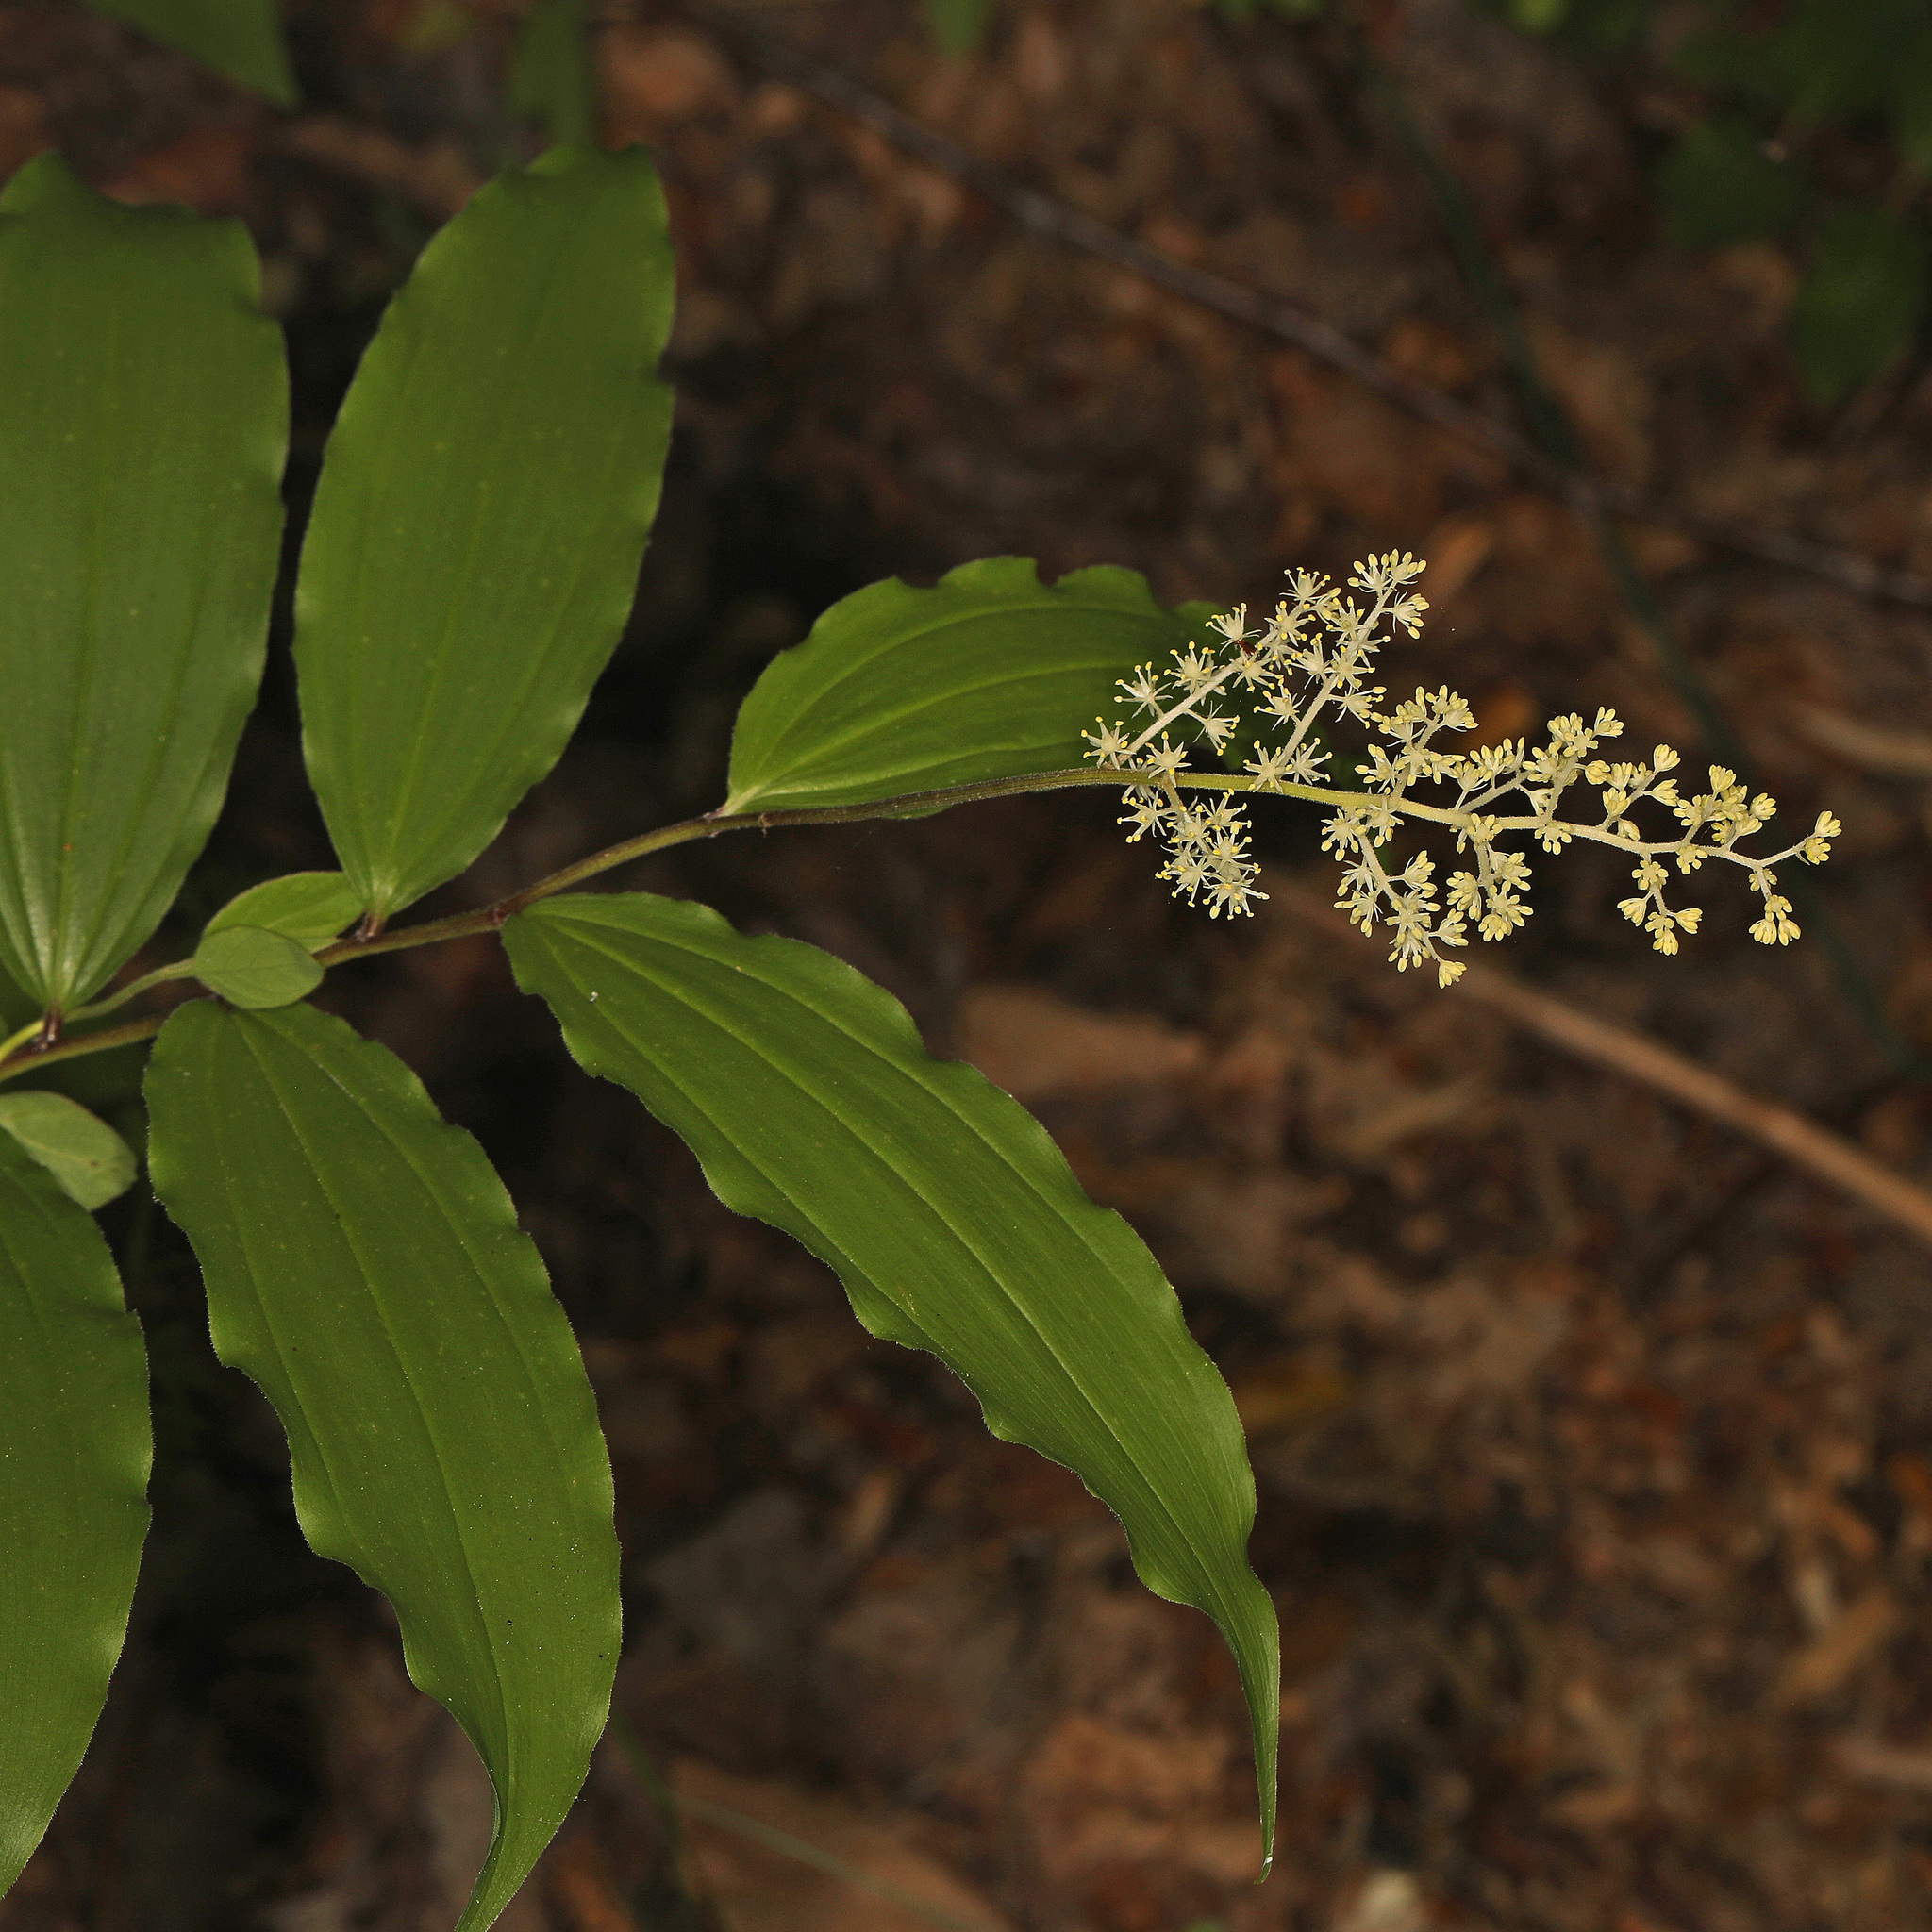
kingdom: Plantae
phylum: Tracheophyta
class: Liliopsida
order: Asparagales
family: Asparagaceae
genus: Maianthemum
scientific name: Maianthemum racemosum
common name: False spikenard
